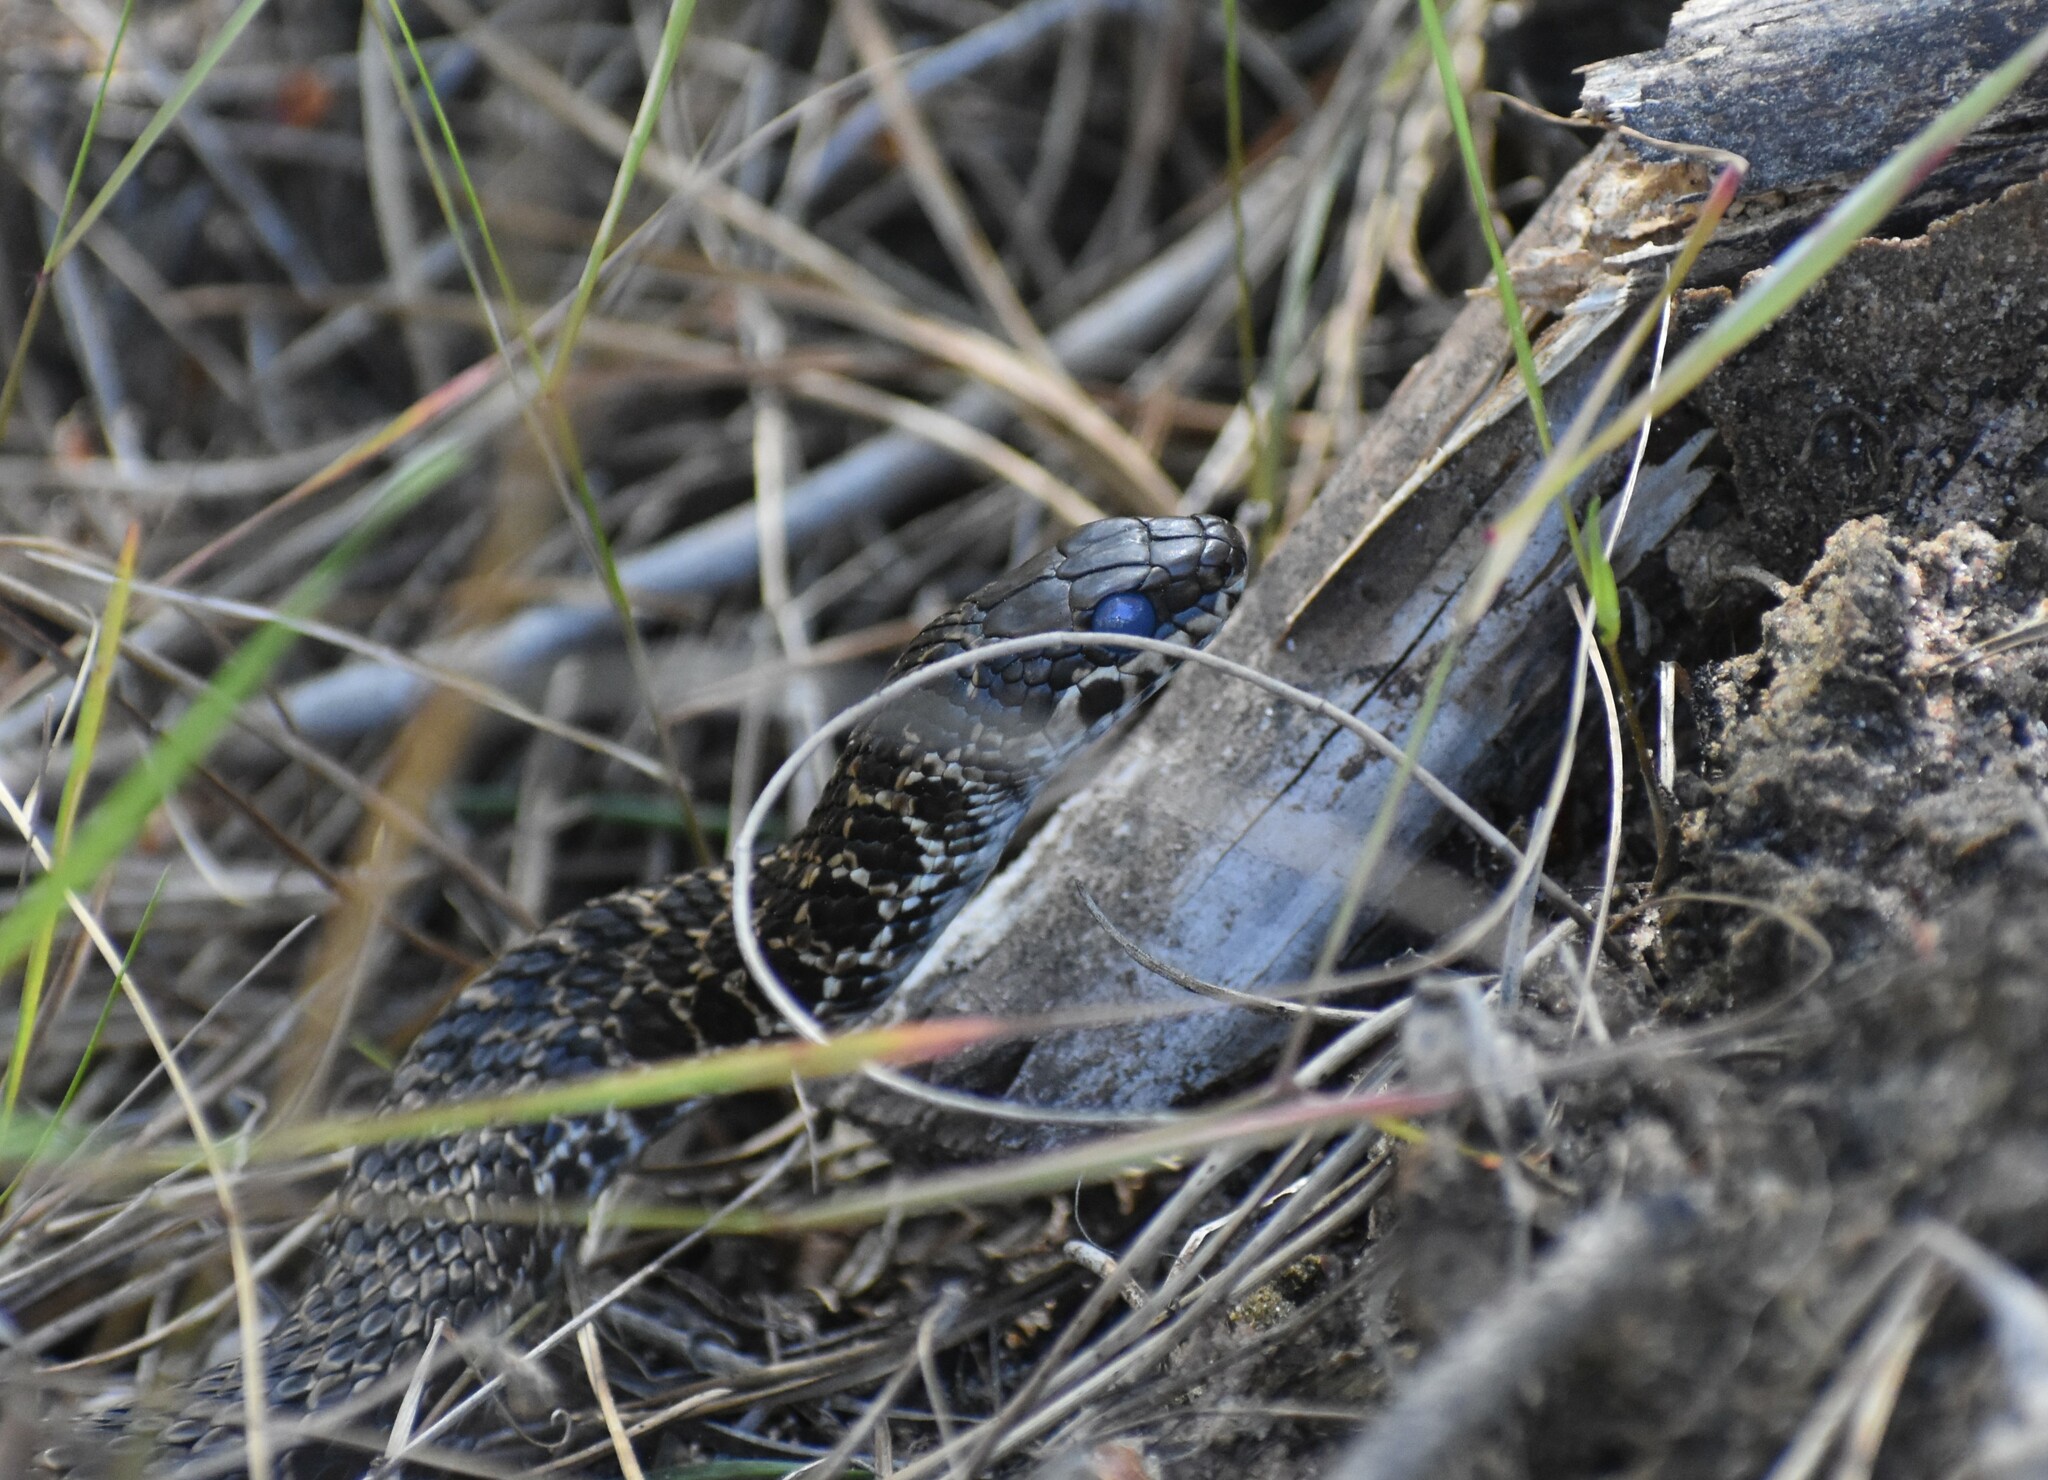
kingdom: Animalia
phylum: Chordata
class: Squamata
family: Psammophiidae
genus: Psammophylax
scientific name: Psammophylax rhombeatus
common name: Rhombic skaapsteker
